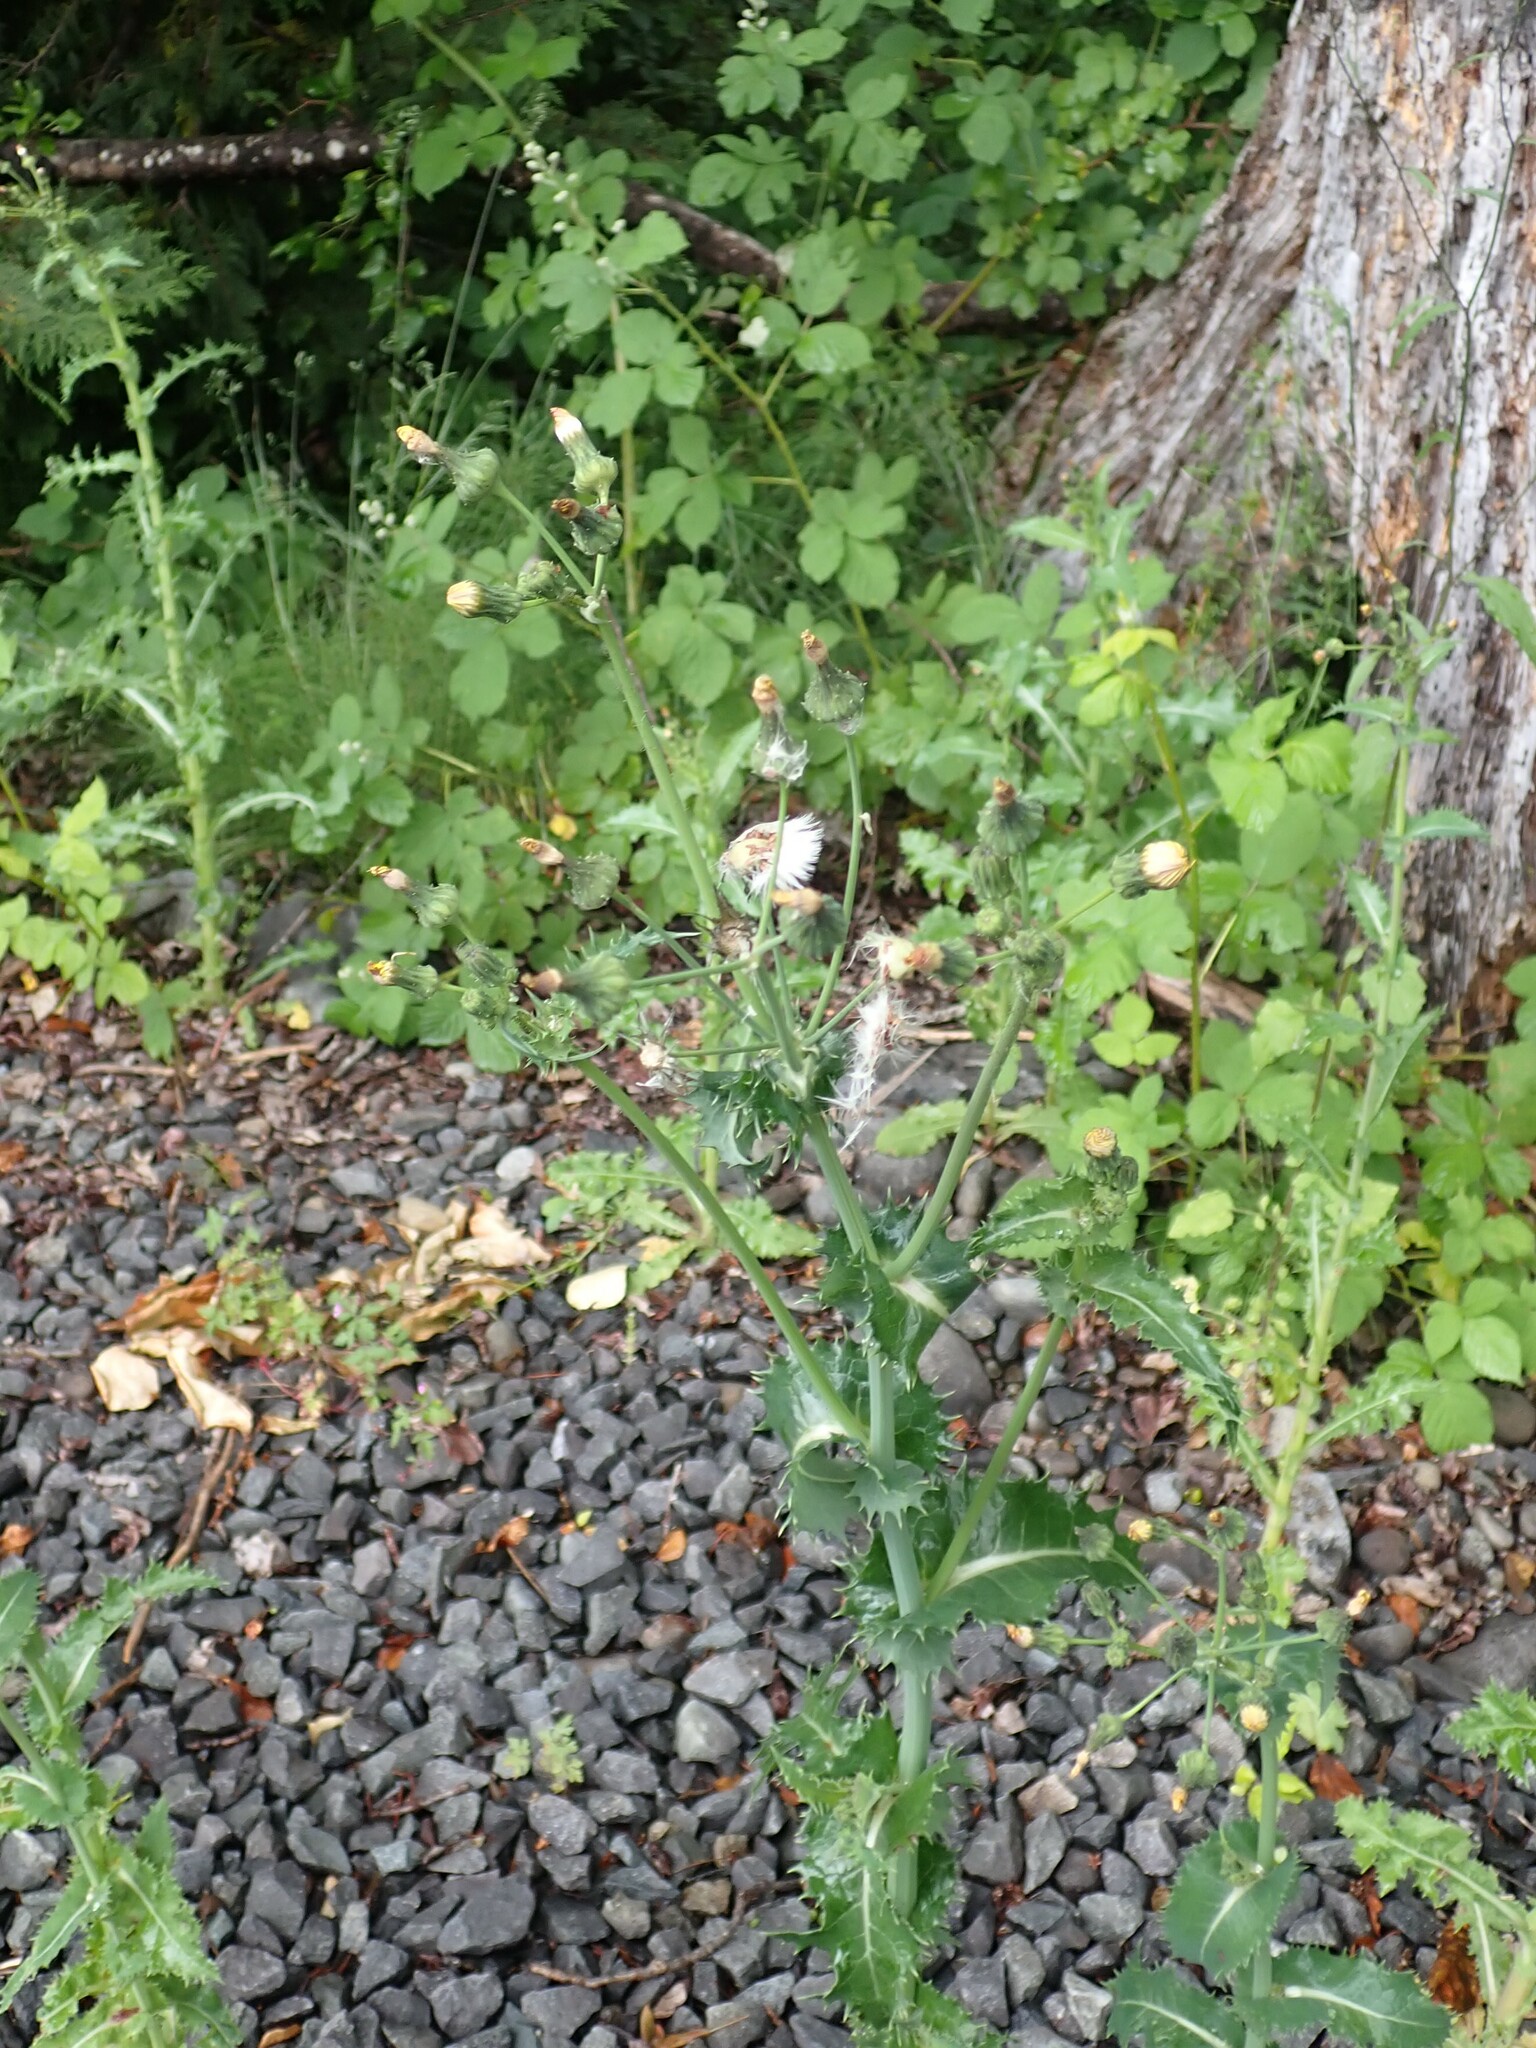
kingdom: Plantae
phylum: Tracheophyta
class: Magnoliopsida
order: Asterales
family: Asteraceae
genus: Sonchus
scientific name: Sonchus asper
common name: Prickly sow-thistle
